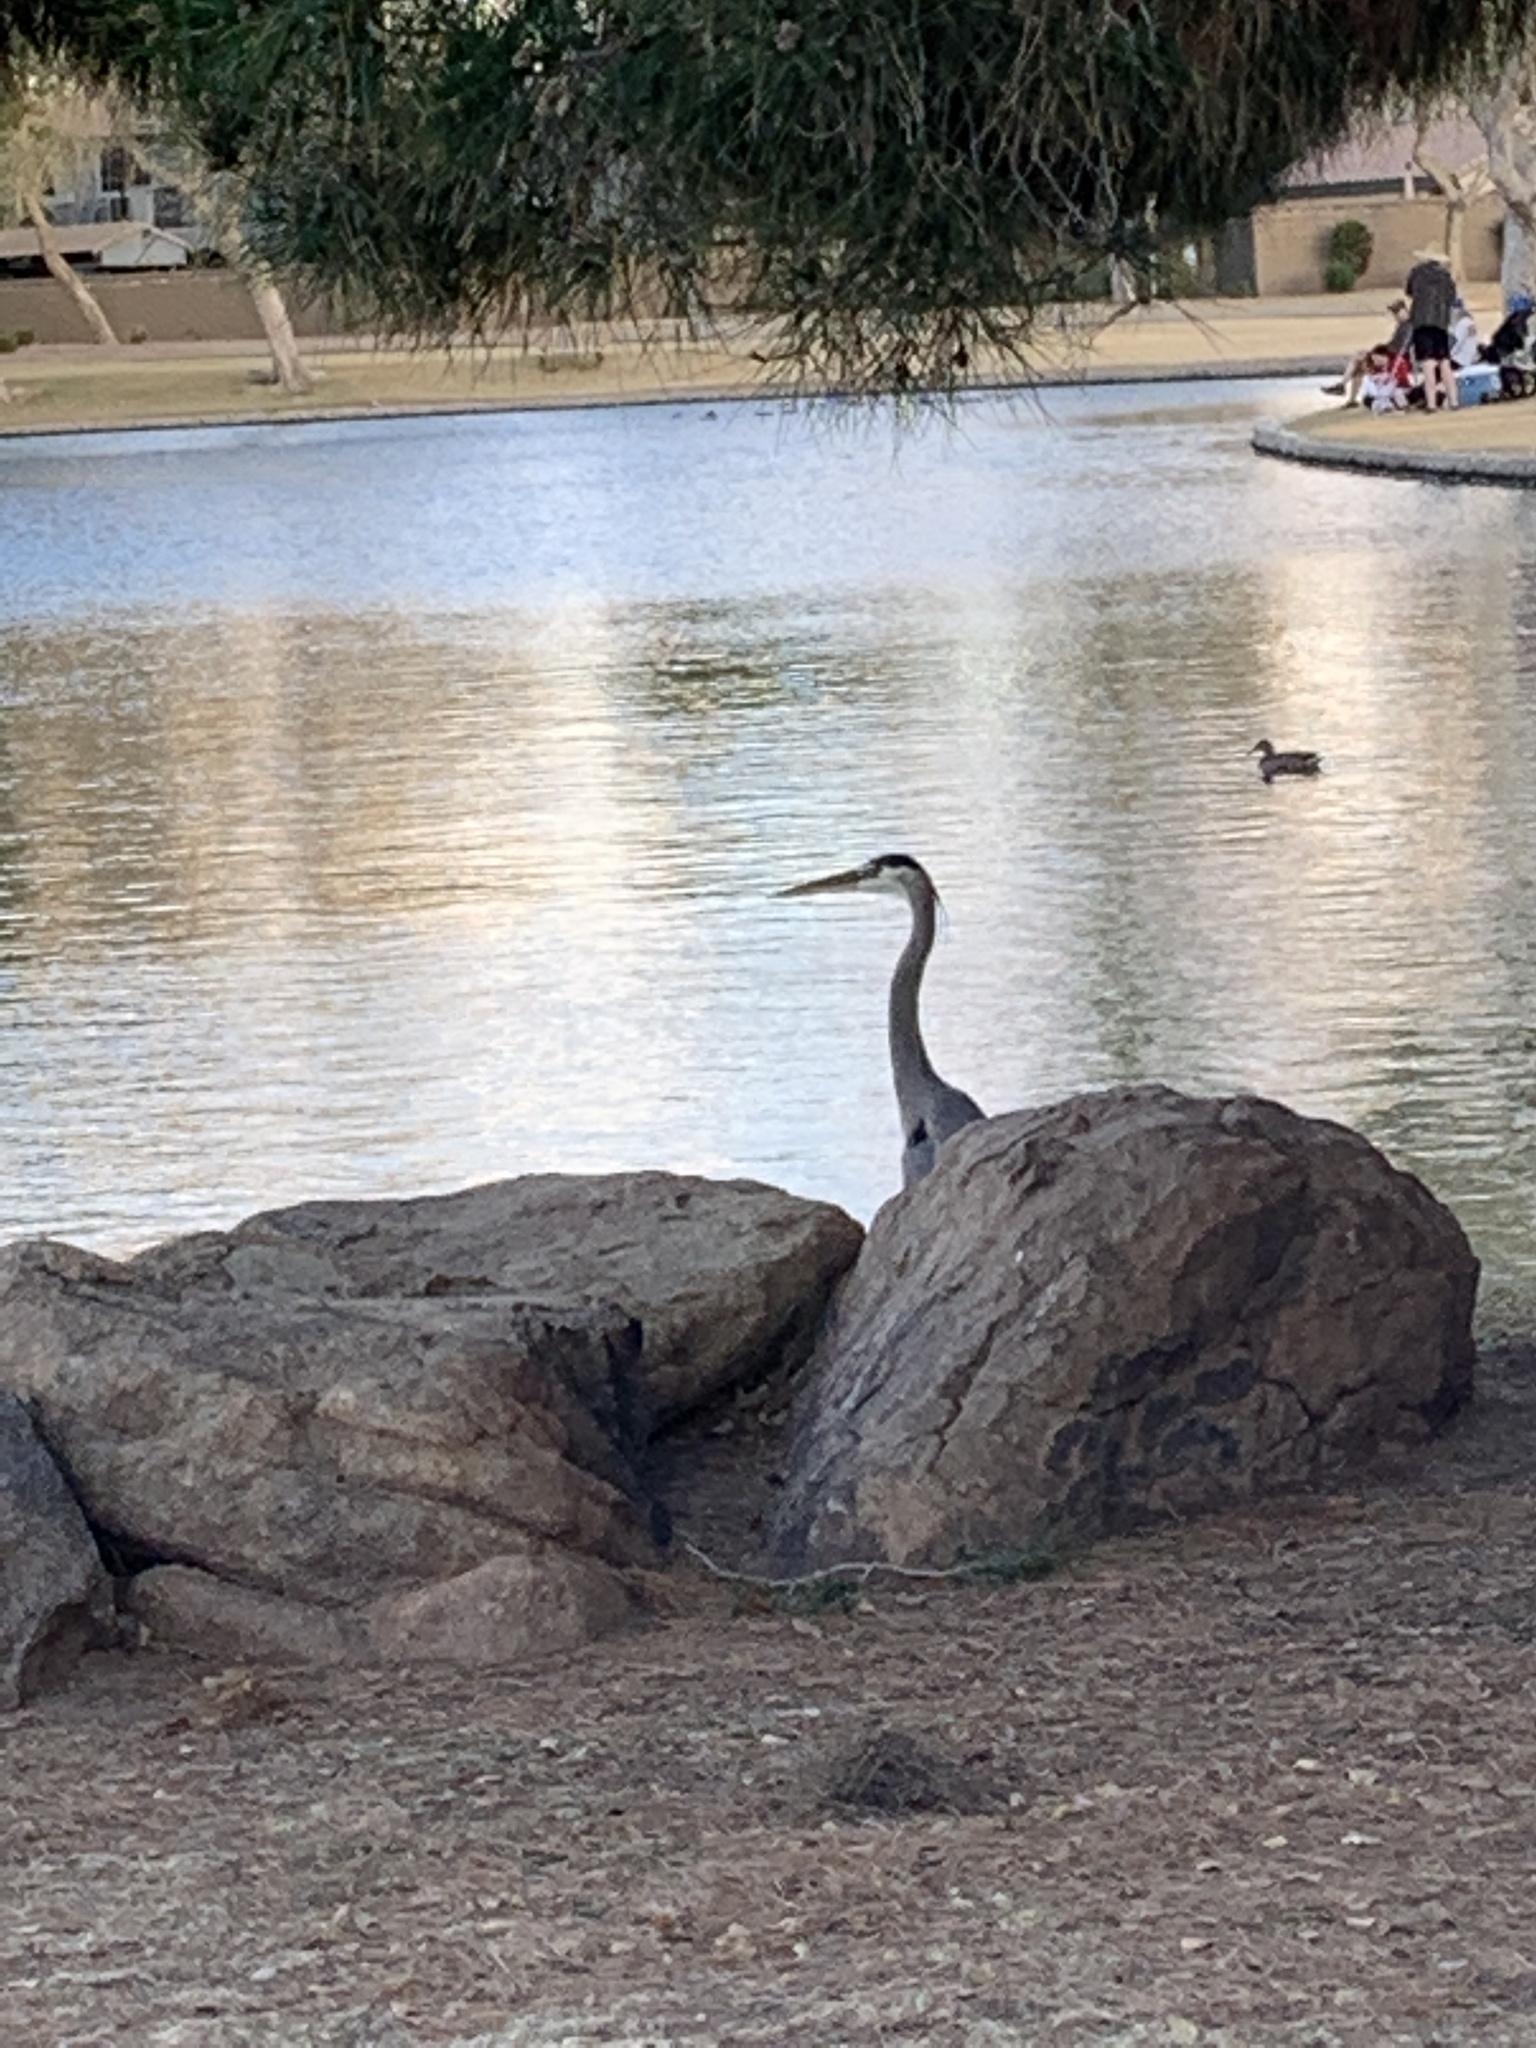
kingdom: Animalia
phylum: Chordata
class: Aves
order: Pelecaniformes
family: Ardeidae
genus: Ardea
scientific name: Ardea herodias
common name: Great blue heron
